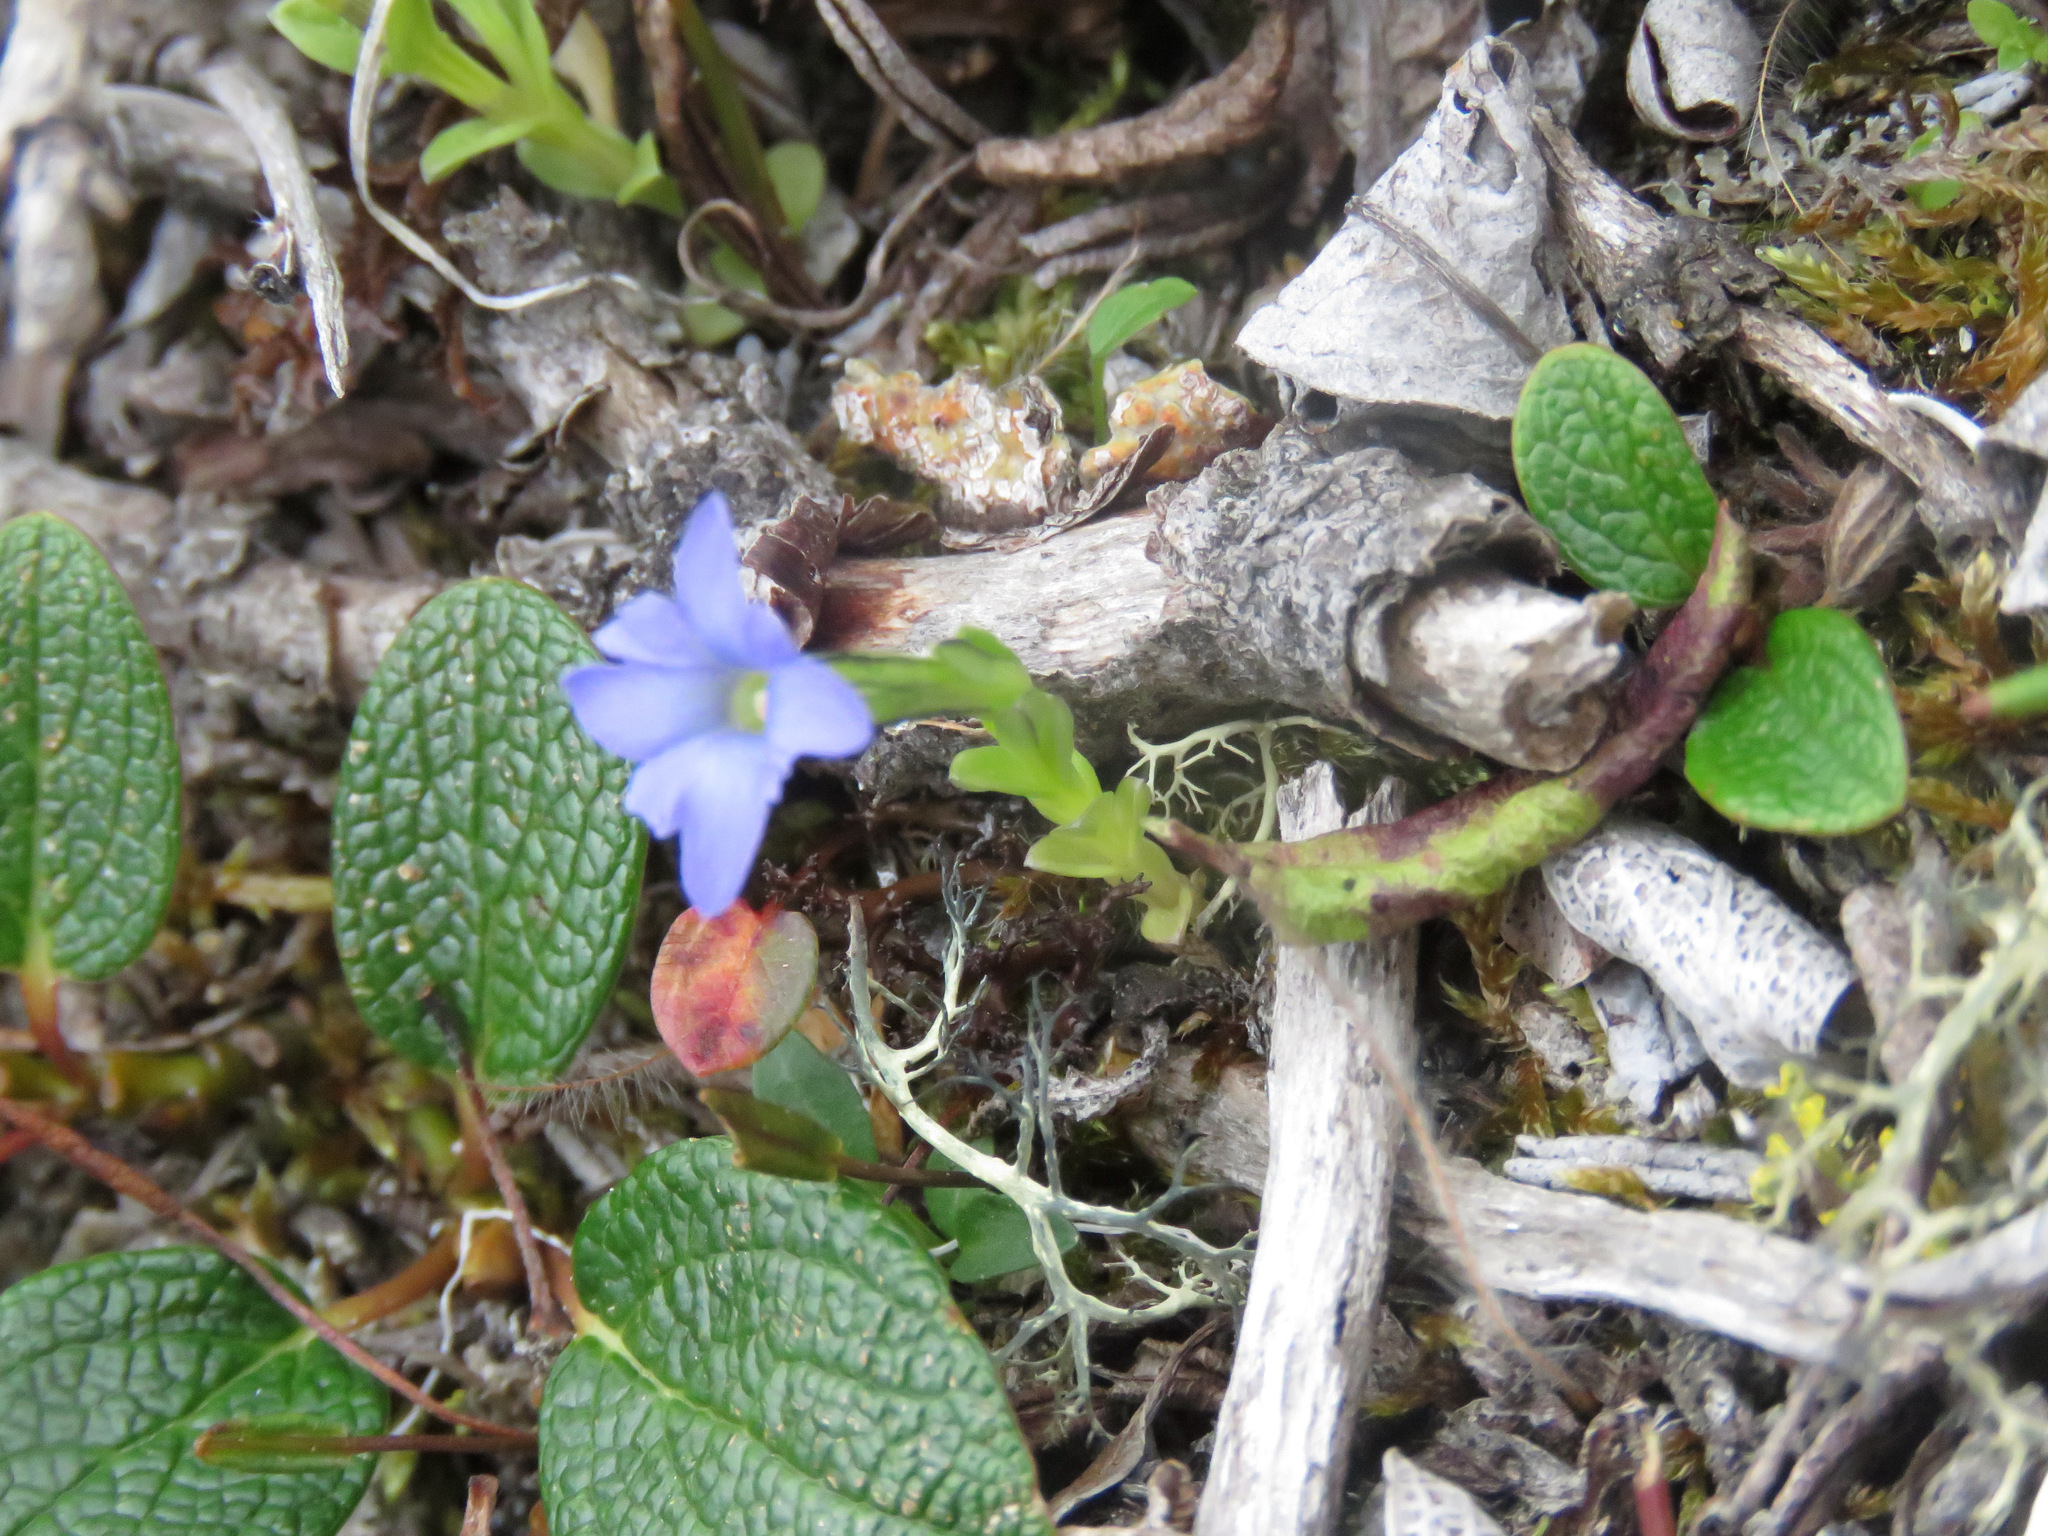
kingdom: Plantae
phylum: Tracheophyta
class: Magnoliopsida
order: Gentianales
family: Gentianaceae
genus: Gentiana
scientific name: Gentiana prostrata
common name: Moss gentian
